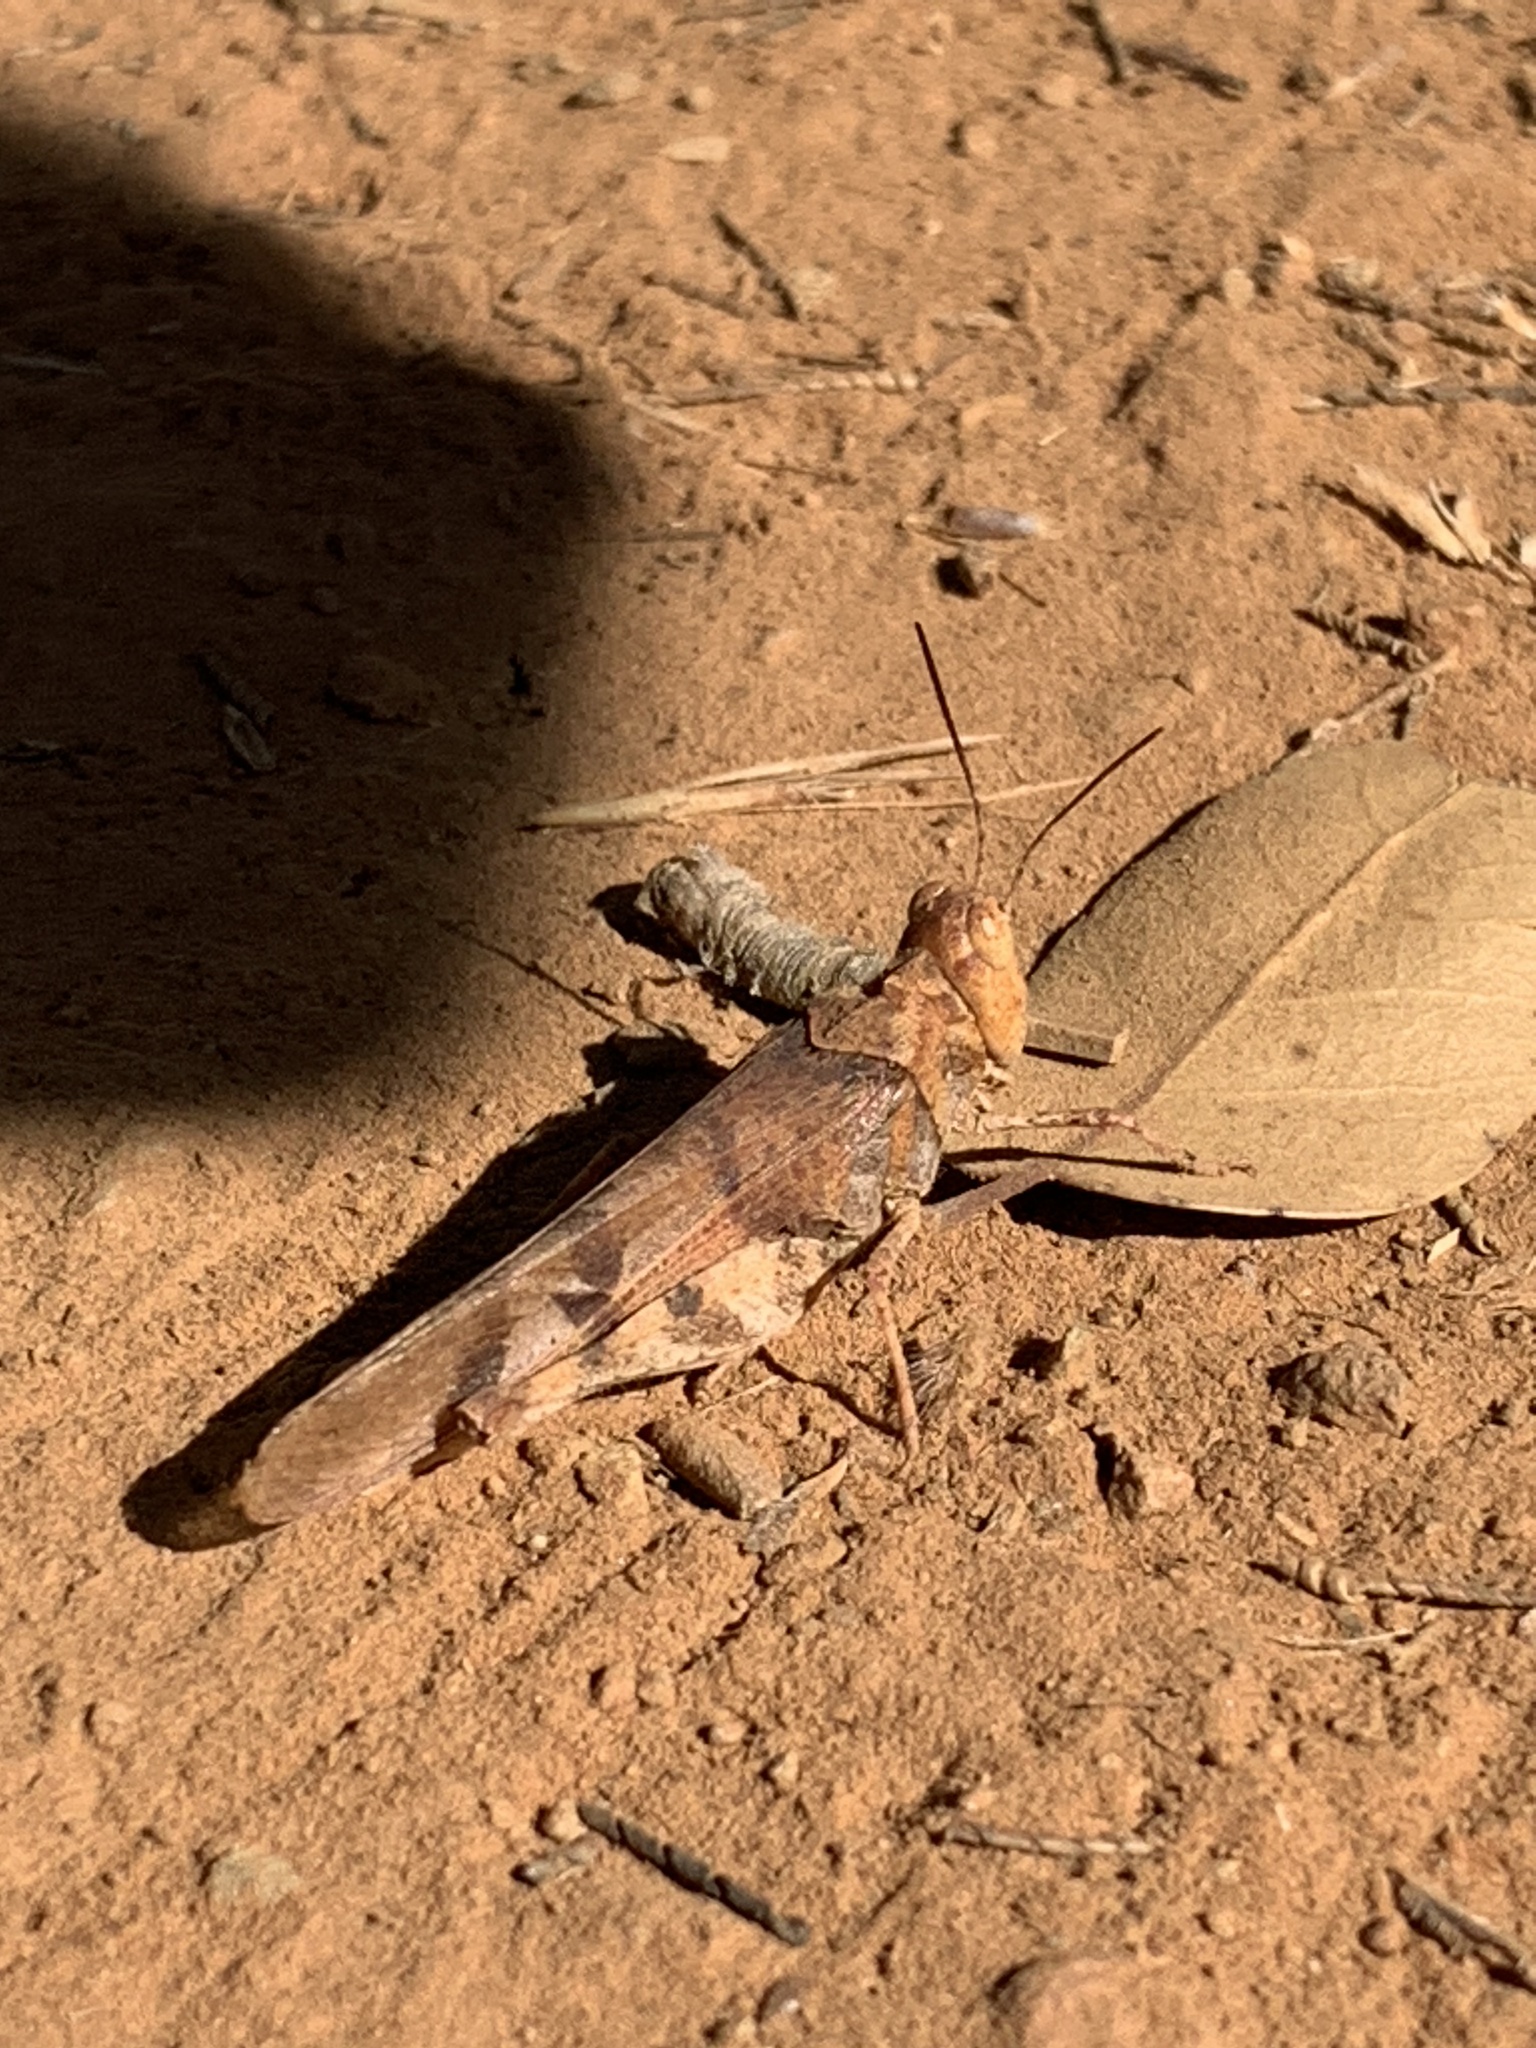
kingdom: Animalia
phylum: Arthropoda
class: Insecta
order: Orthoptera
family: Acrididae
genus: Dissosteira
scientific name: Dissosteira pictipennis
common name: California rose-winged grasshopper
